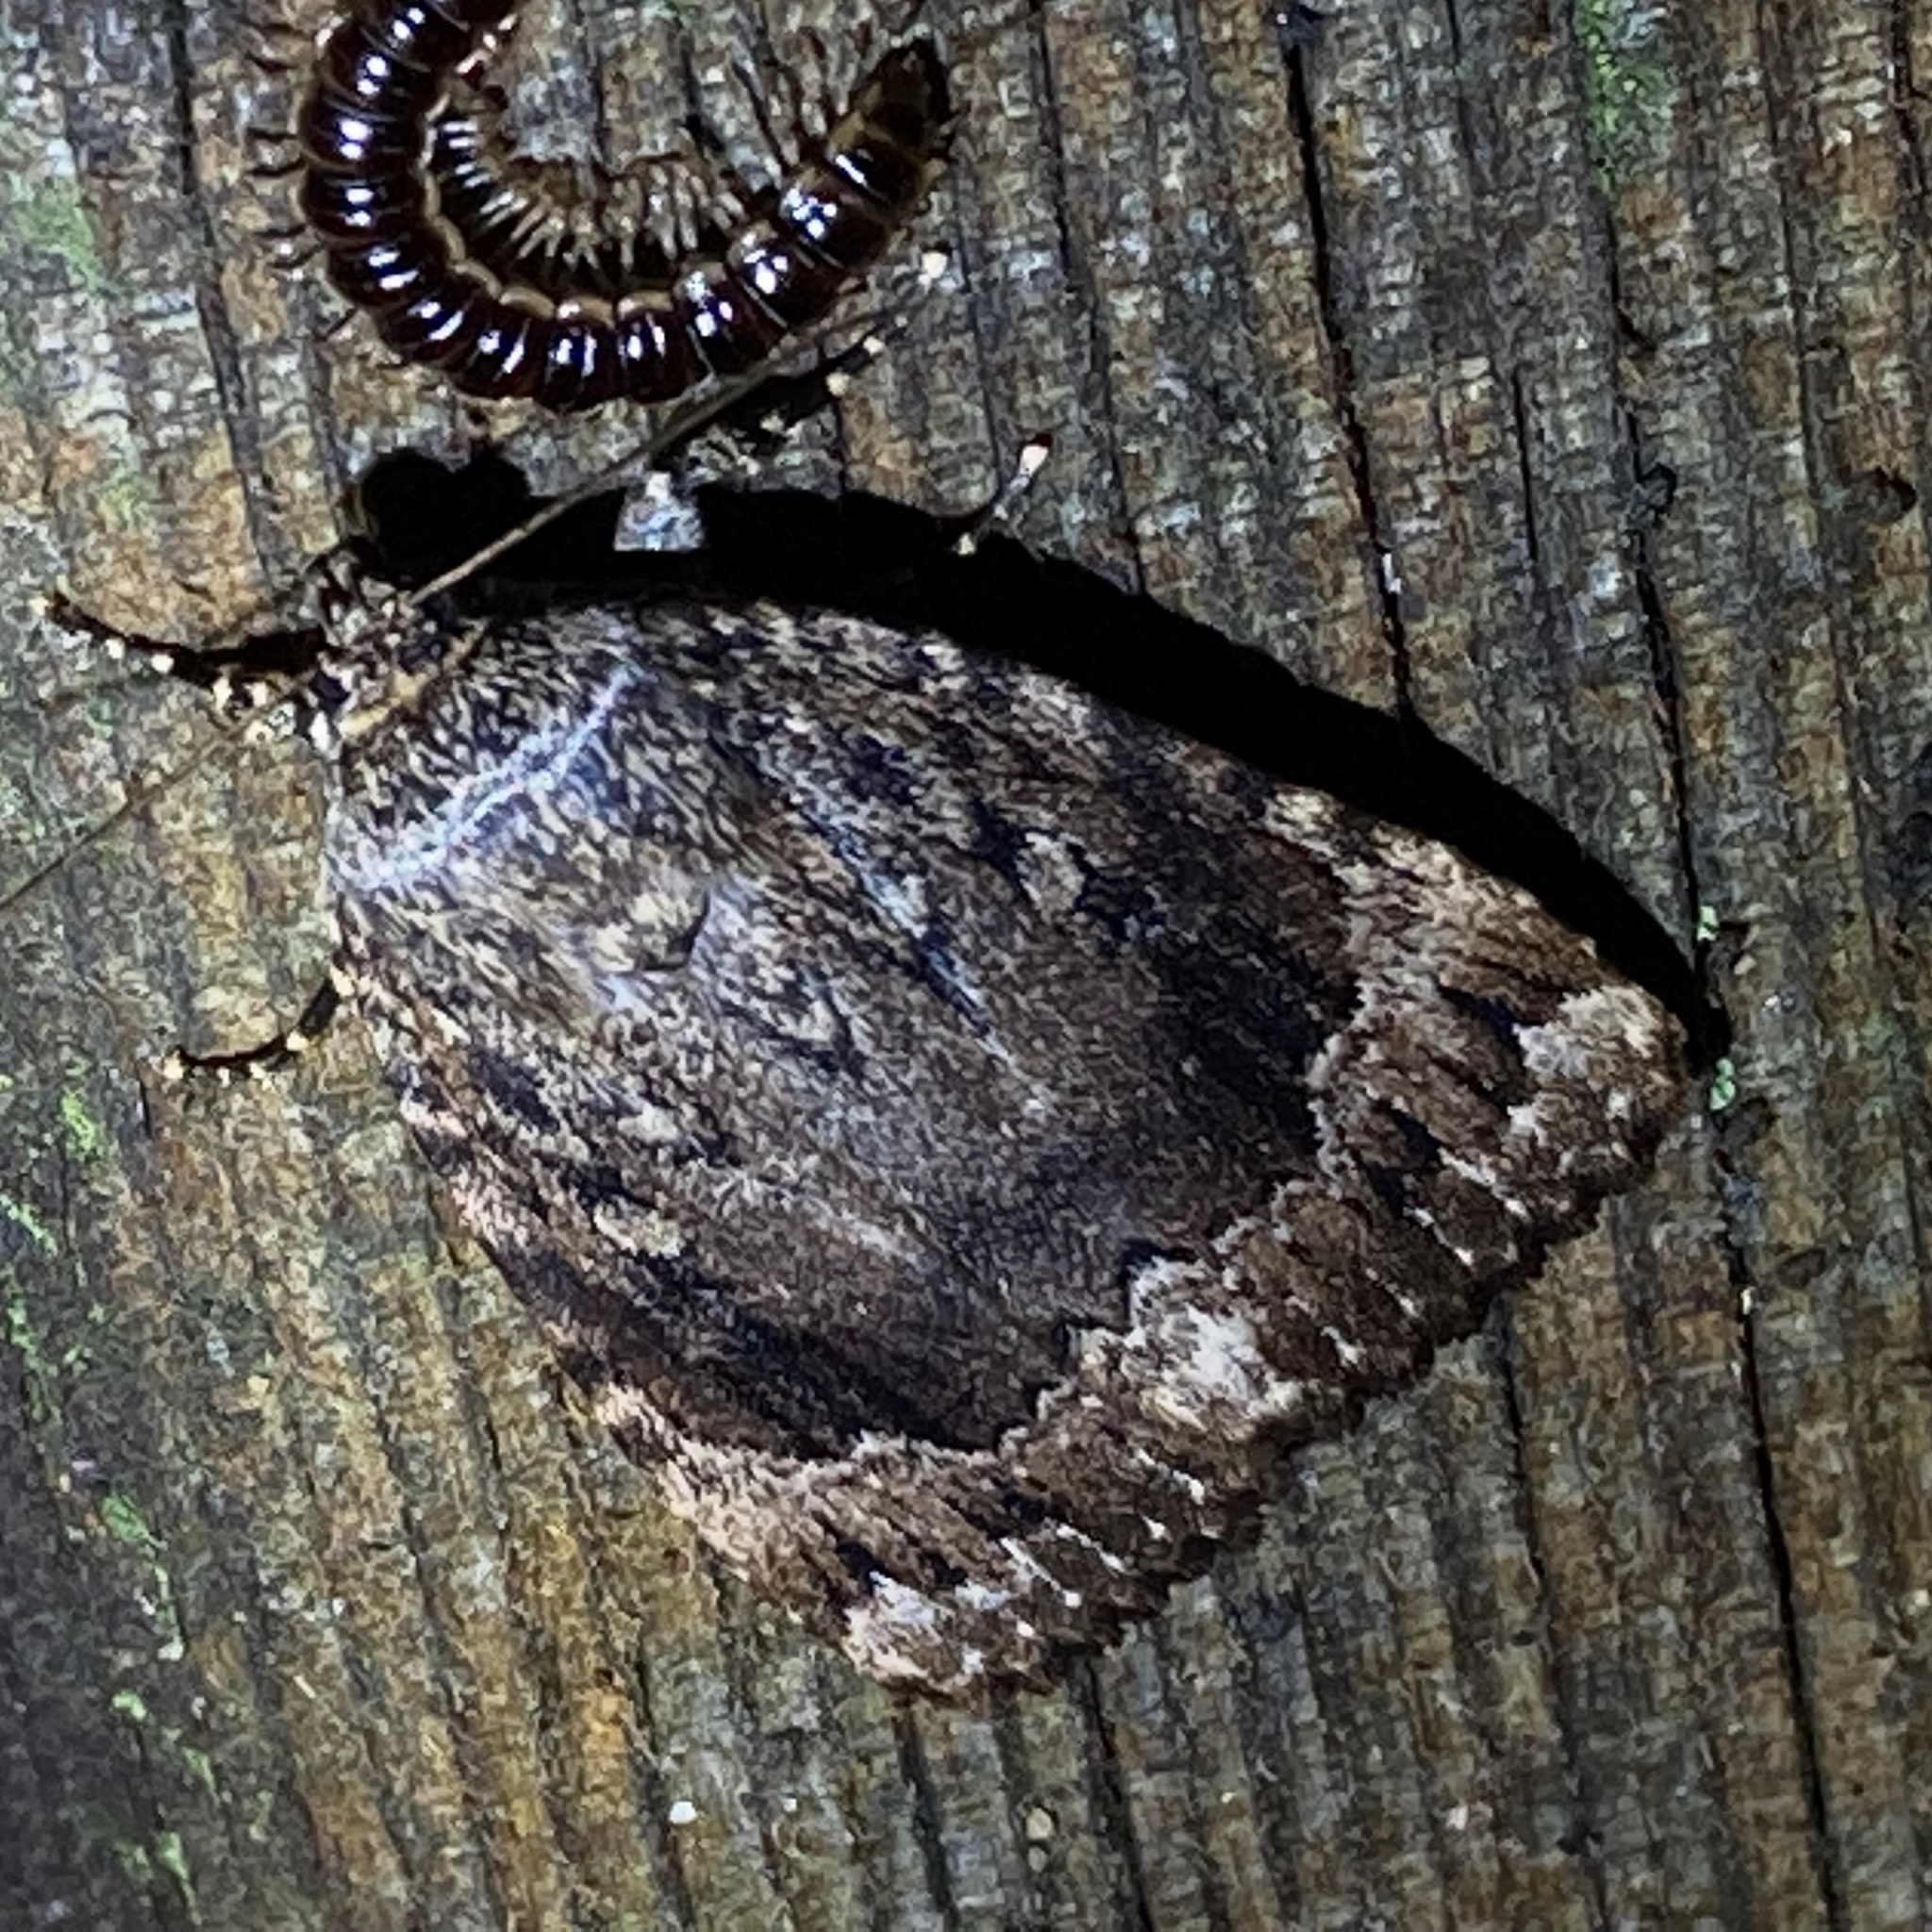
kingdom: Animalia
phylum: Arthropoda
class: Insecta
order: Lepidoptera
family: Noctuidae
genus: Amphipyra
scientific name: Amphipyra pyramidoides
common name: American copper underwing
